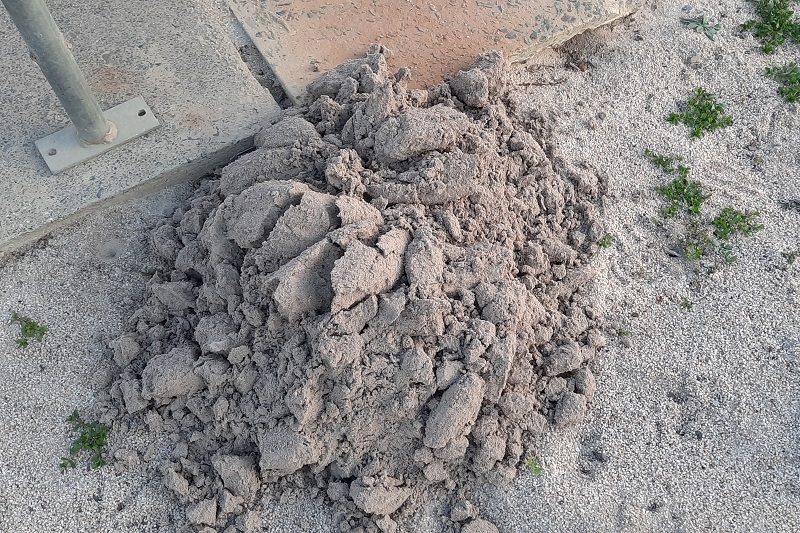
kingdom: Animalia
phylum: Chordata
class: Mammalia
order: Rodentia
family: Bathyergidae
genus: Bathyergus
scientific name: Bathyergus suillus
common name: Cape dune mole rat
